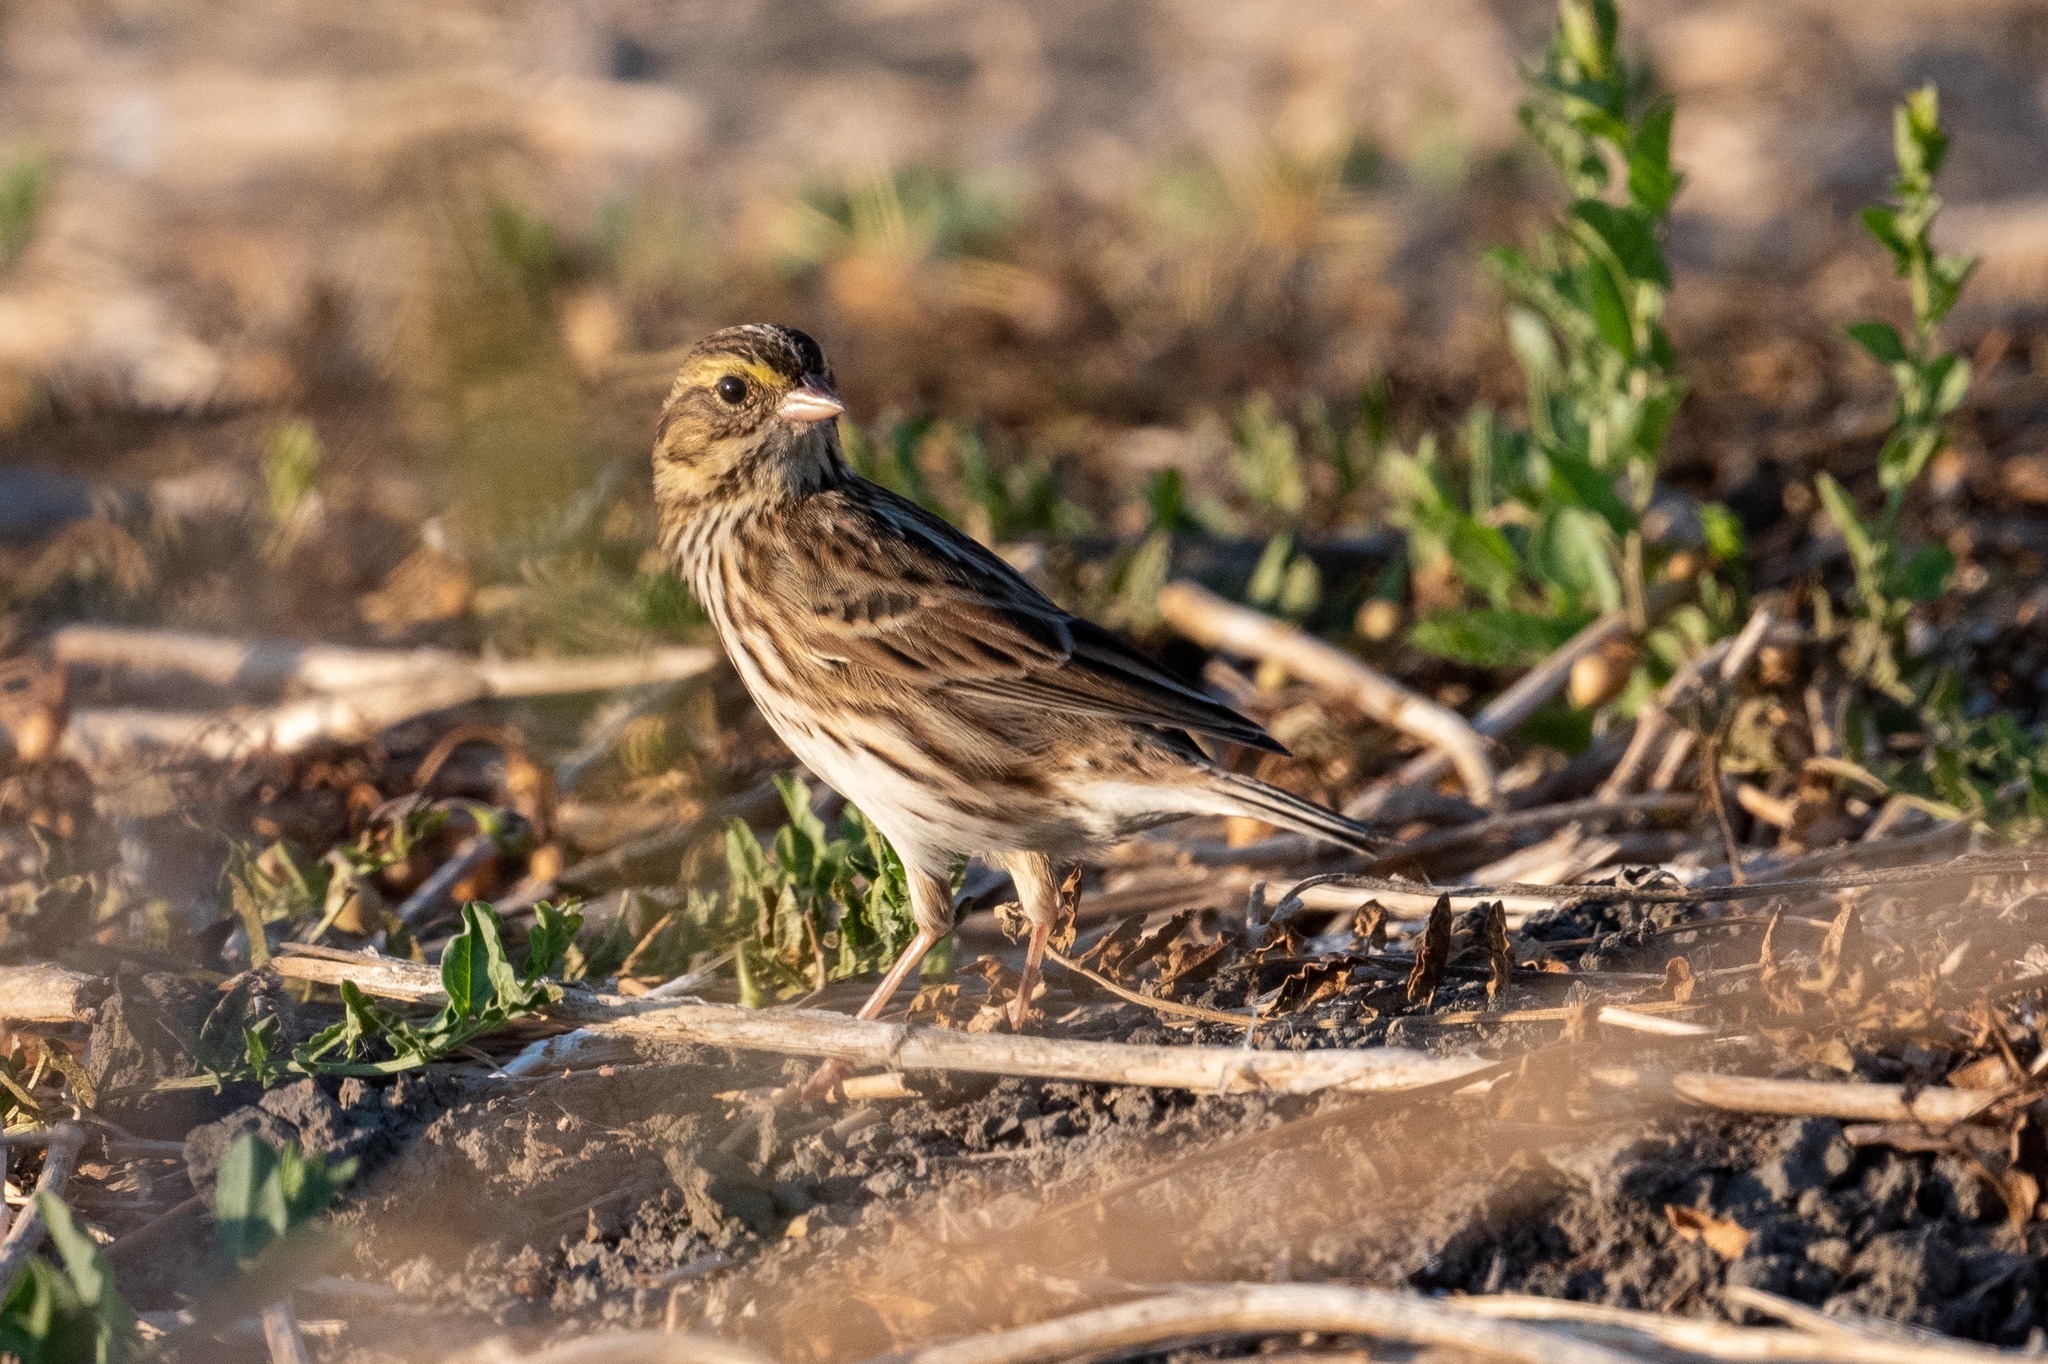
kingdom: Animalia
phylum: Chordata
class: Aves
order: Passeriformes
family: Passerellidae
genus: Passerculus
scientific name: Passerculus sandwichensis
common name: Savannah sparrow
